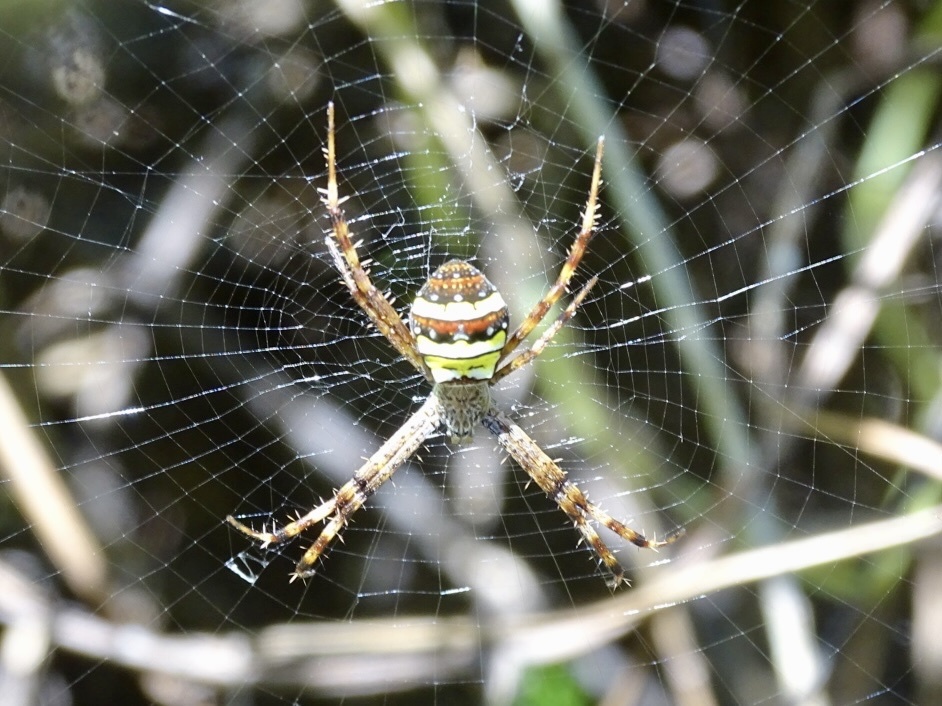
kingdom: Animalia
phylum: Arthropoda
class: Arachnida
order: Araneae
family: Araneidae
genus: Argiope
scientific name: Argiope minuta
